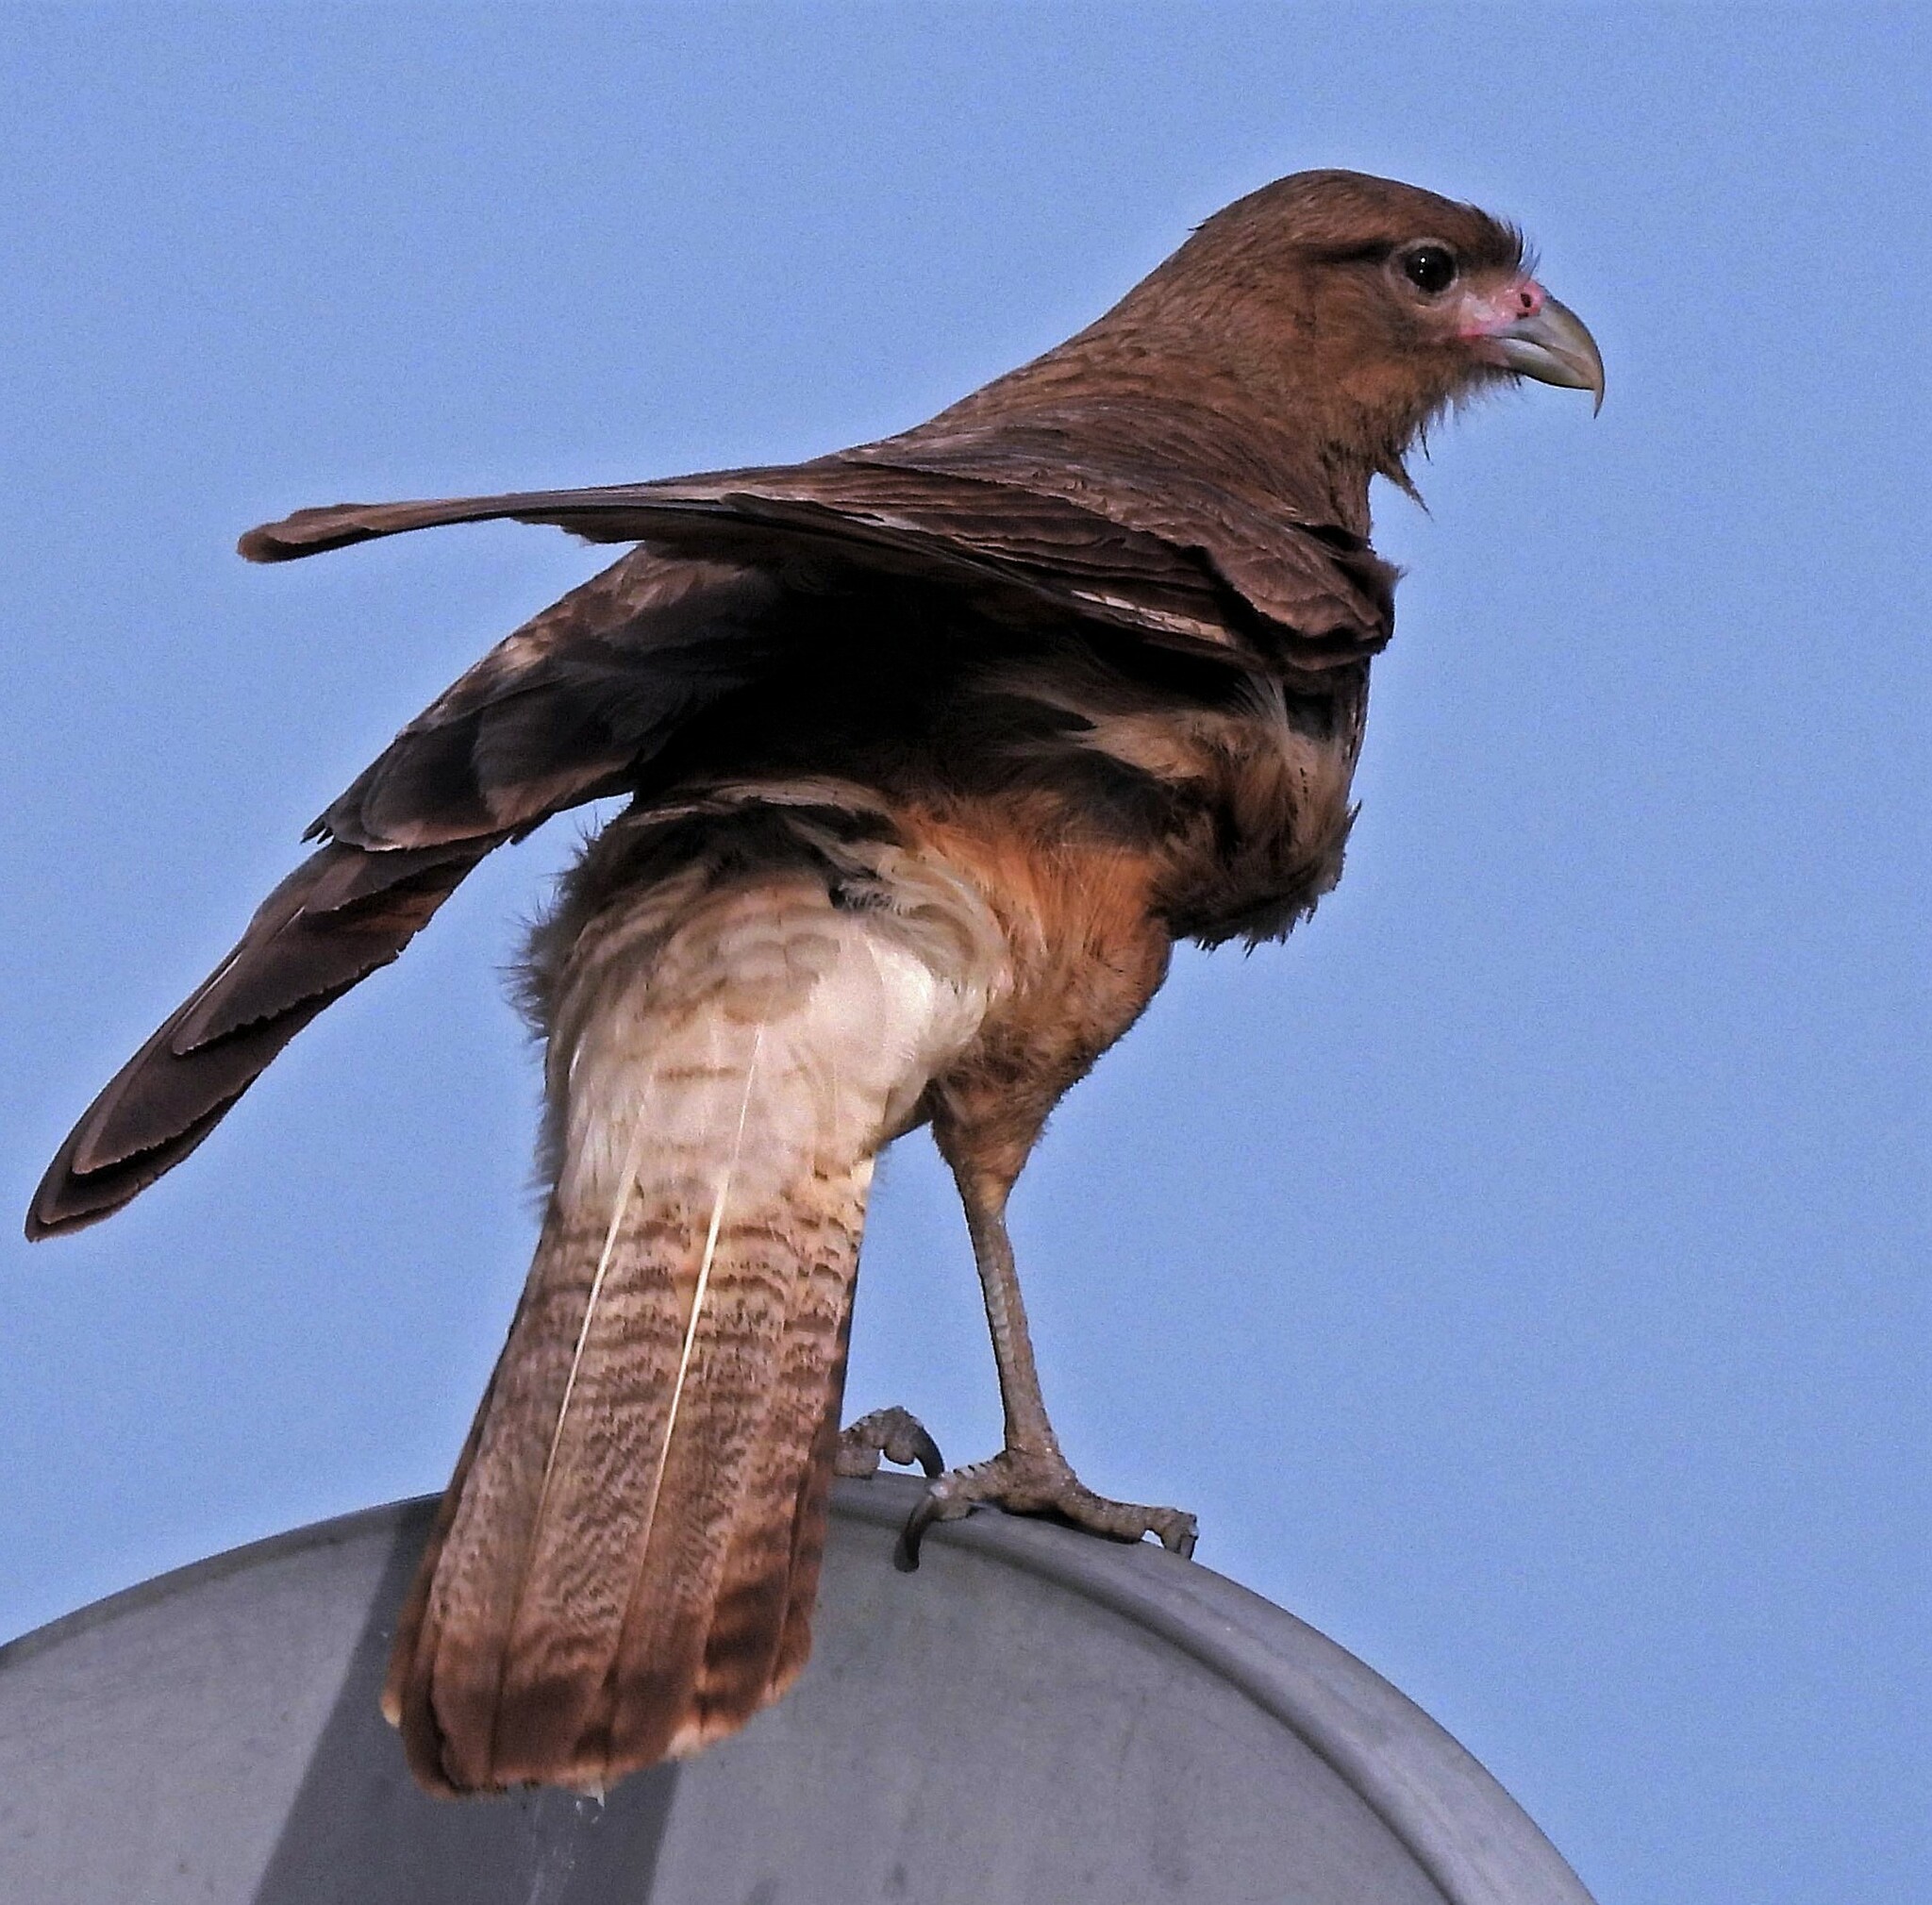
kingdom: Animalia
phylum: Chordata
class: Aves
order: Falconiformes
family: Falconidae
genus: Daptrius
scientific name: Daptrius
